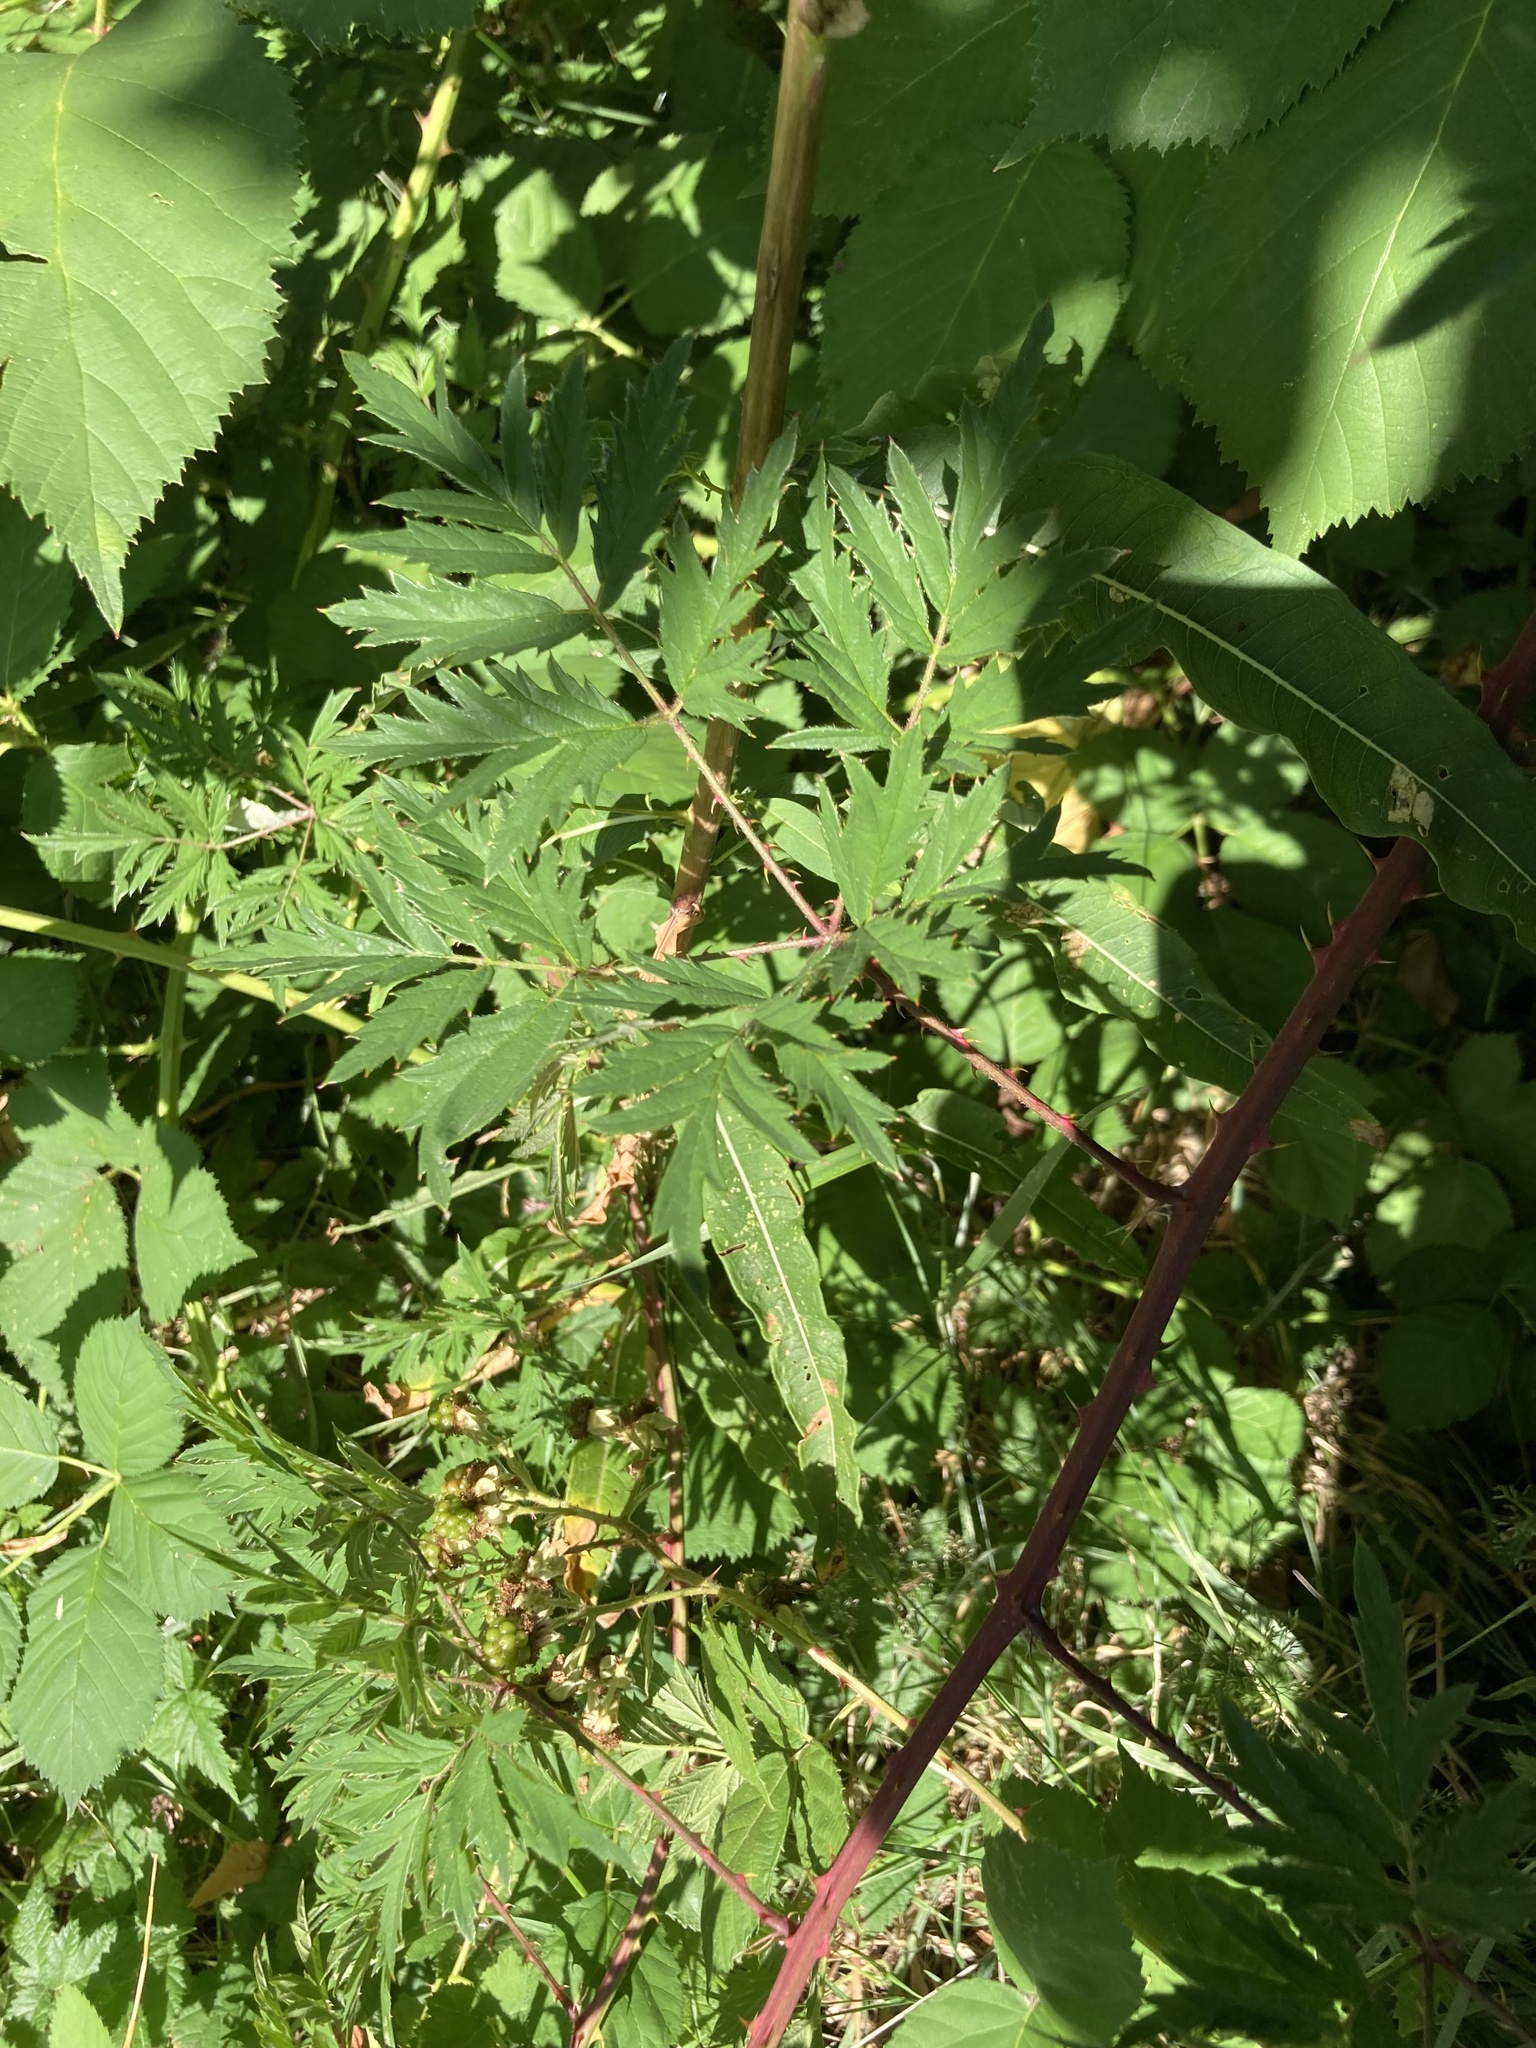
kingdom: Plantae
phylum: Tracheophyta
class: Magnoliopsida
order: Rosales
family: Rosaceae
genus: Rubus
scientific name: Rubus laciniatus
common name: Evergreen blackberry
